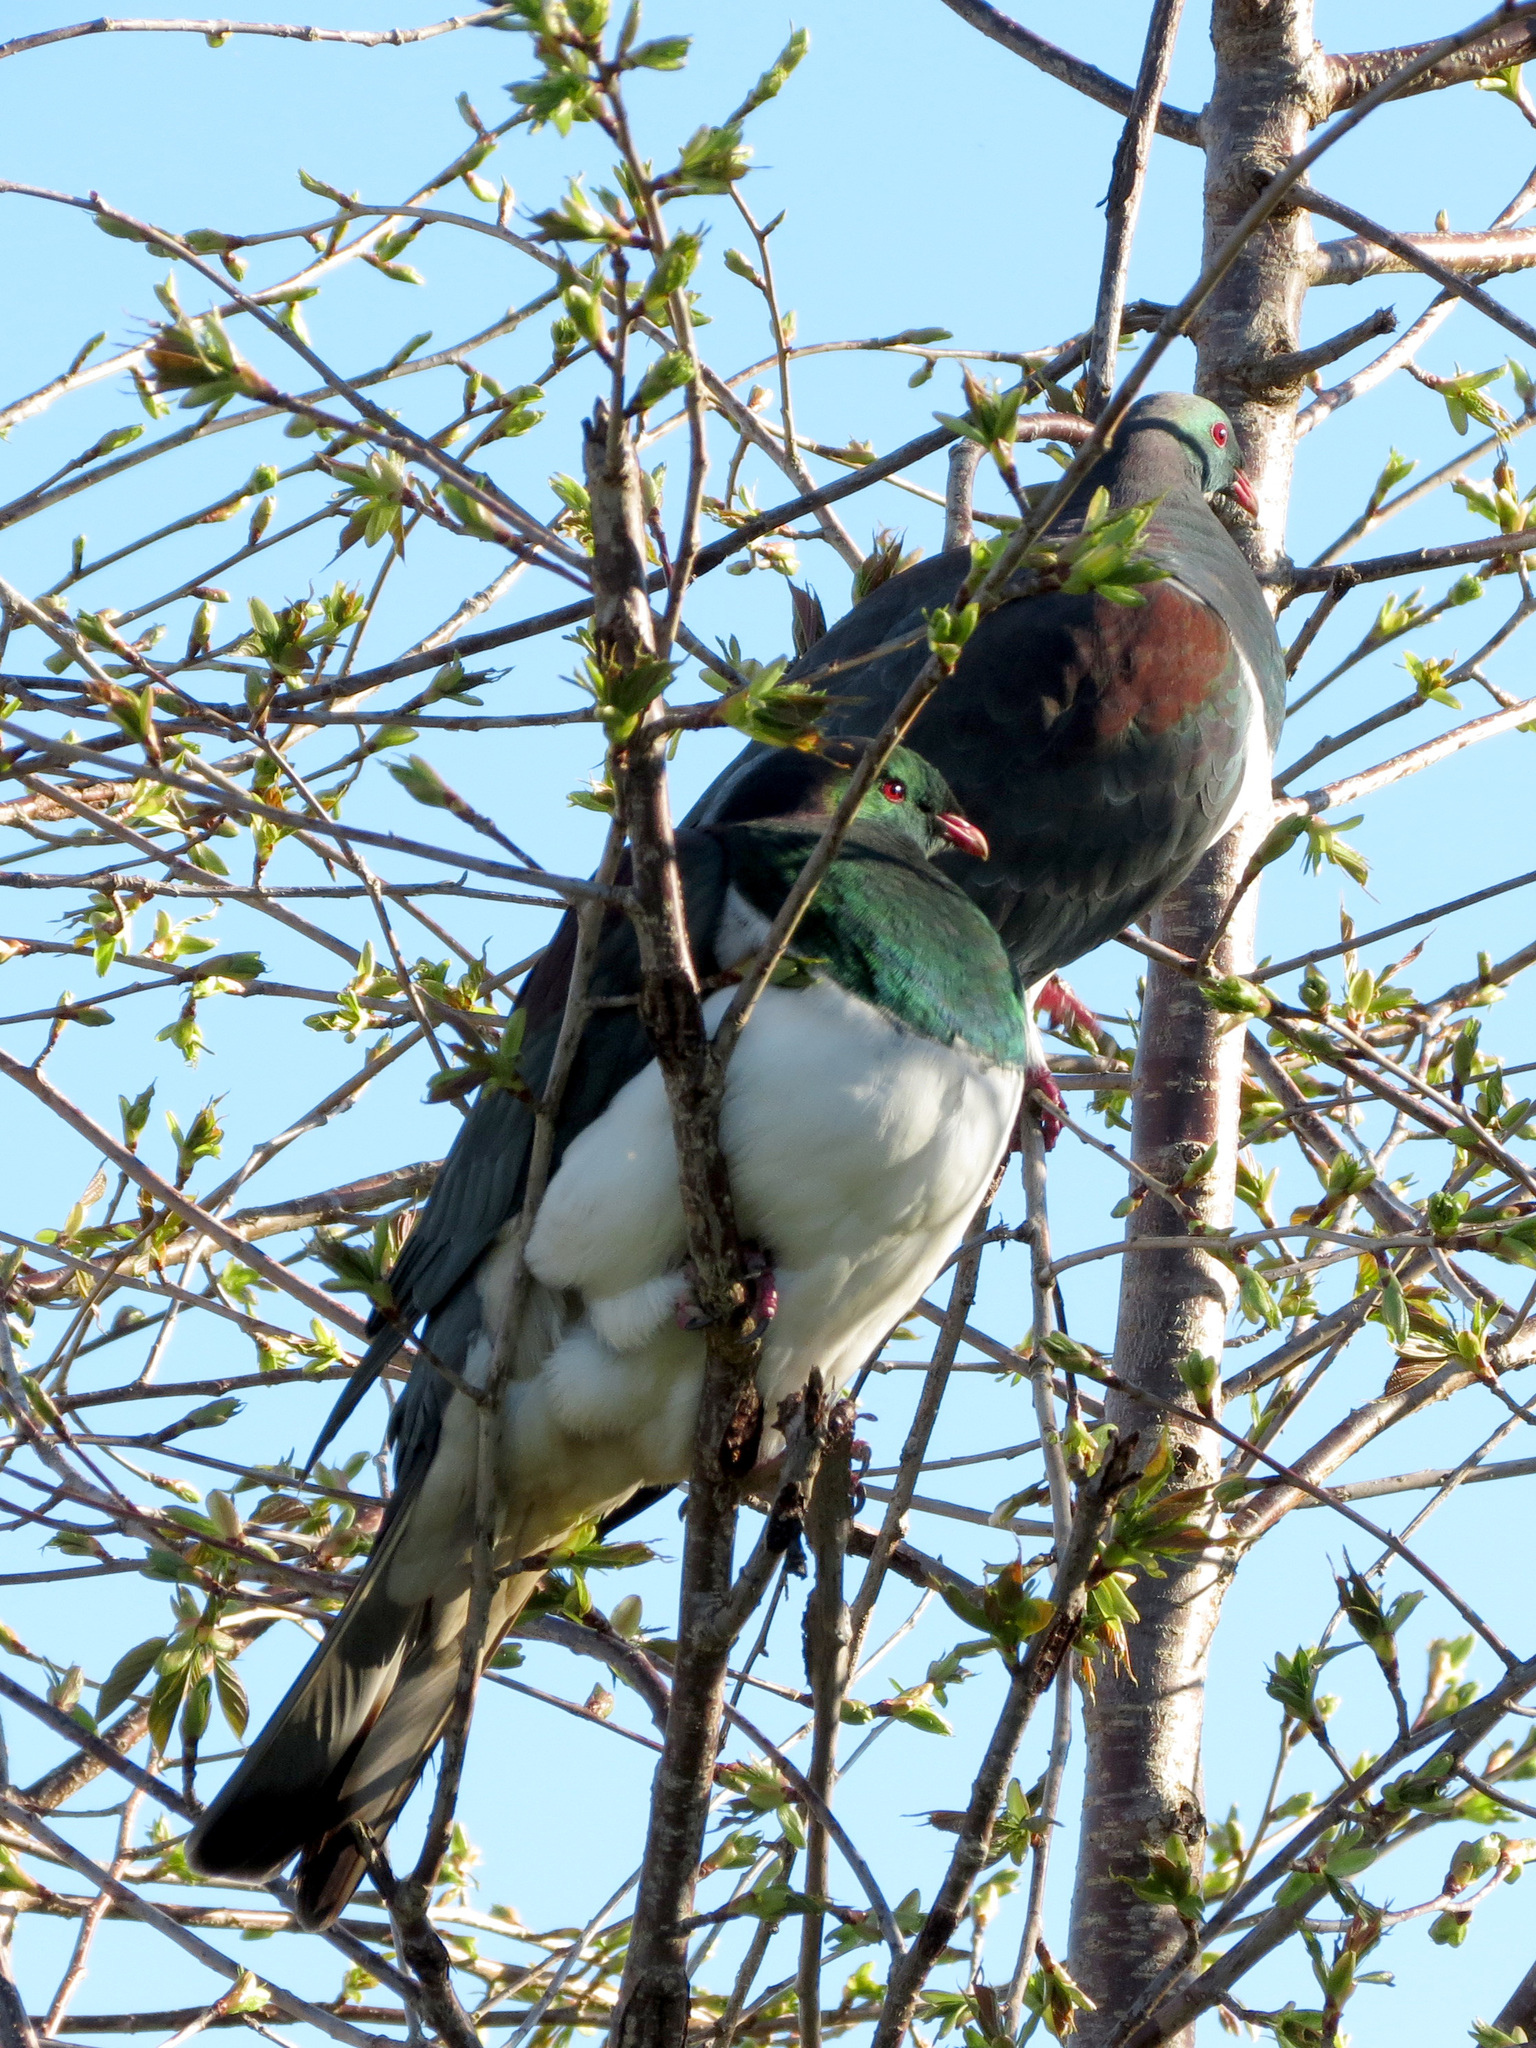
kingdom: Animalia
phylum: Chordata
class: Aves
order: Columbiformes
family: Columbidae
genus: Hemiphaga
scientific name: Hemiphaga novaeseelandiae
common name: New zealand pigeon
